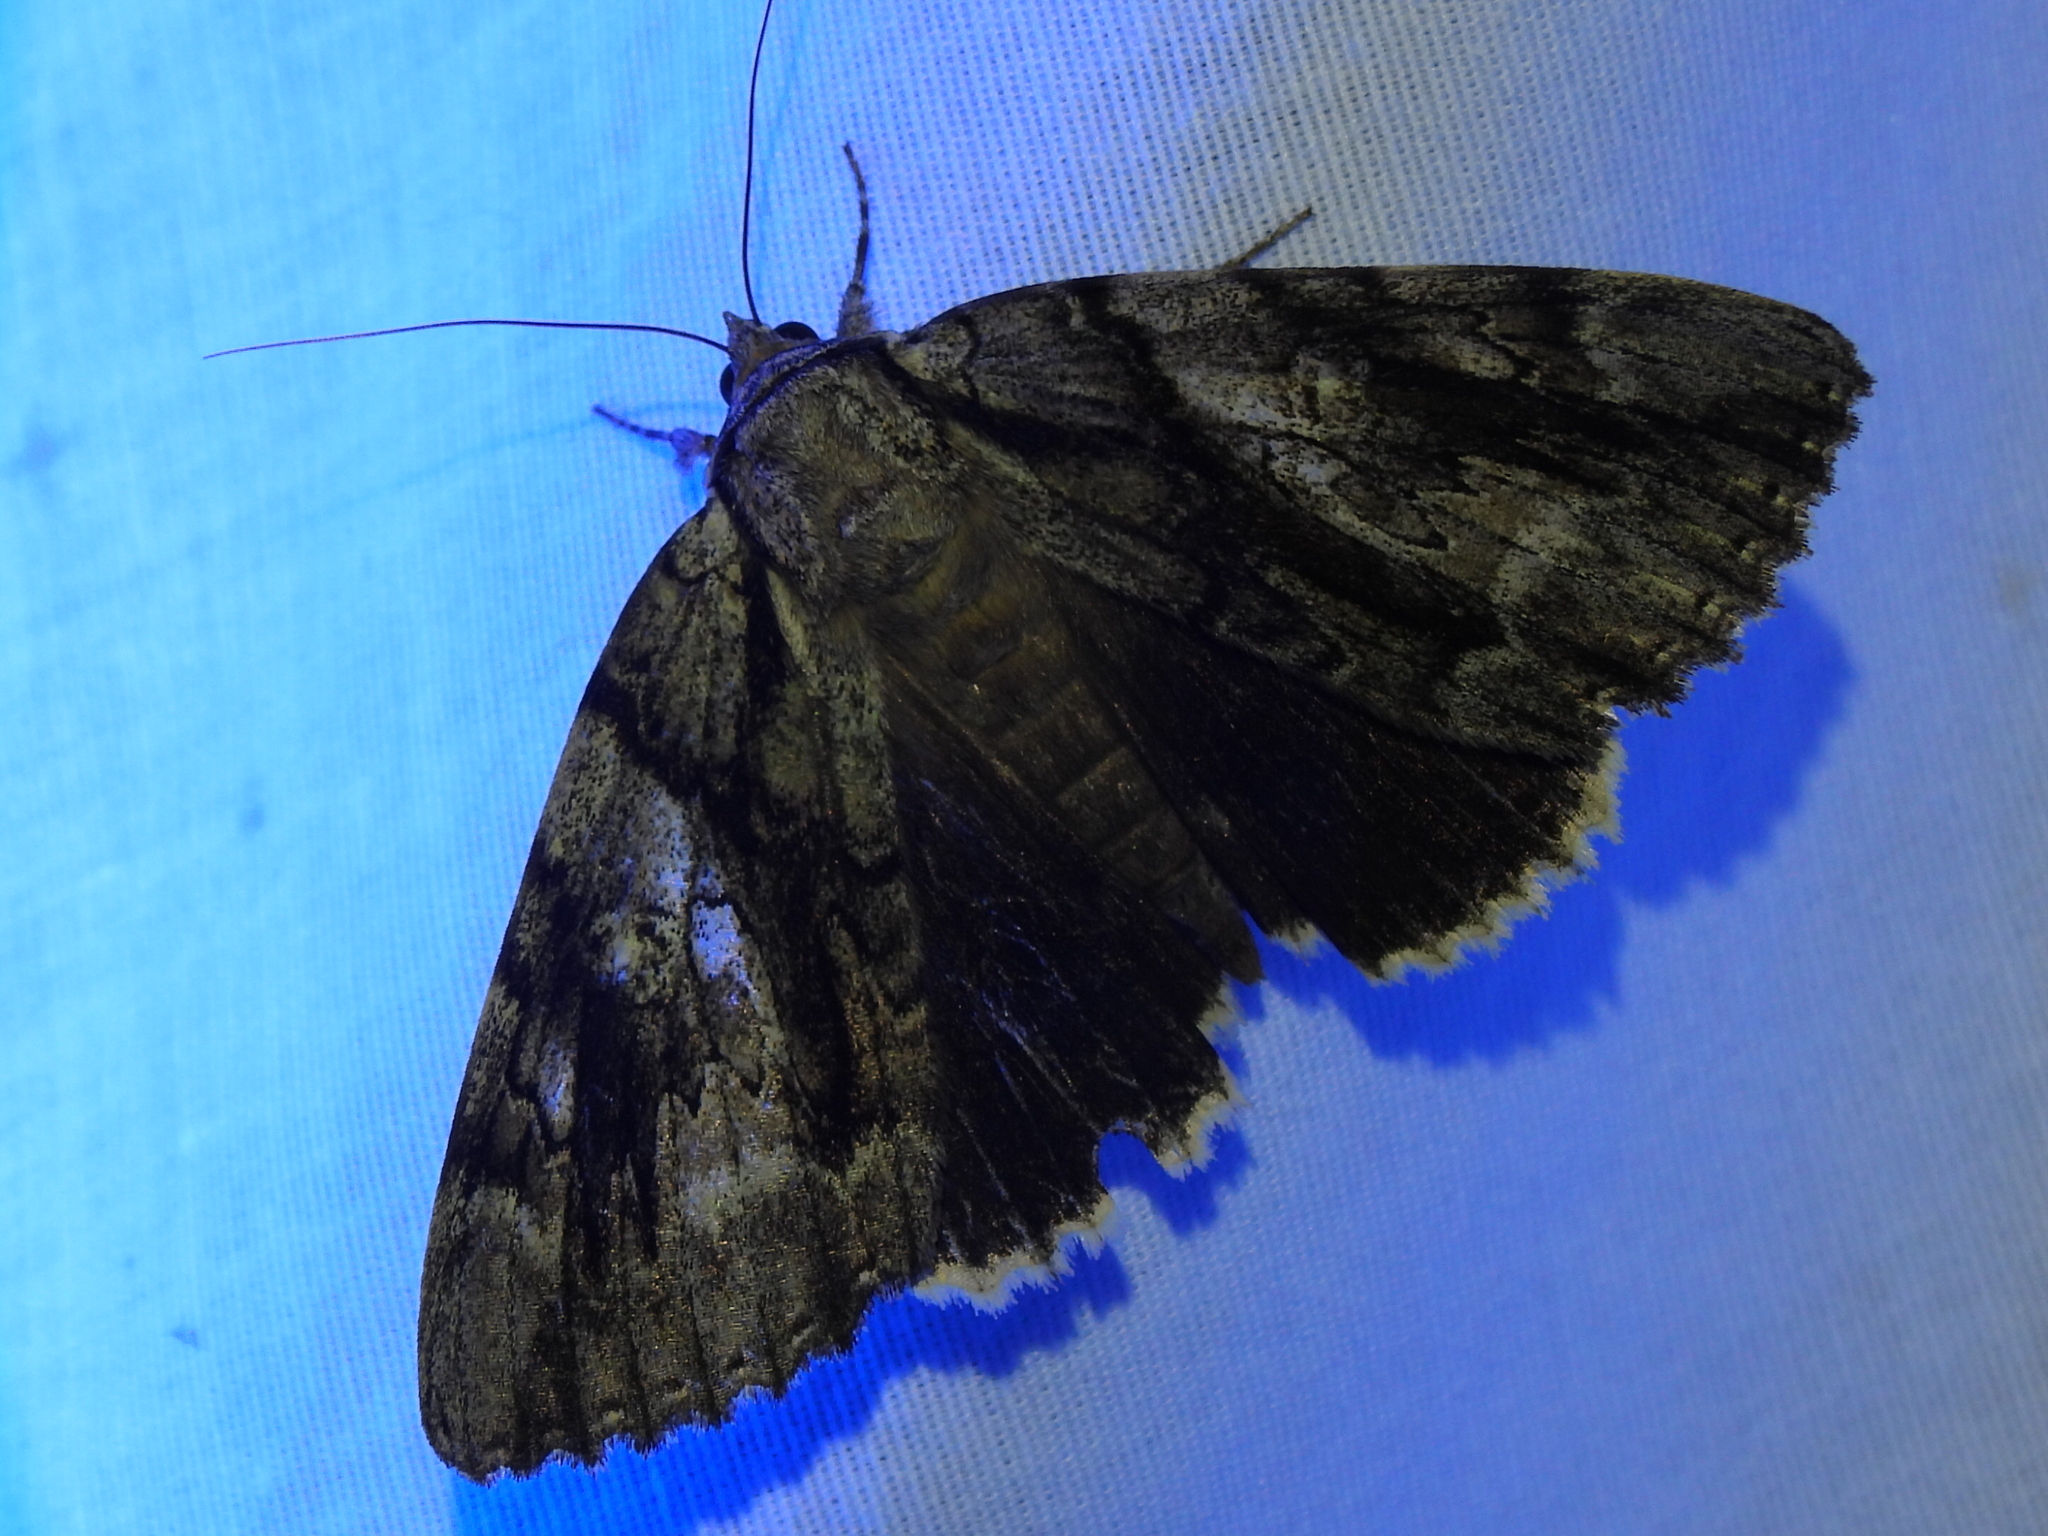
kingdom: Animalia
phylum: Arthropoda
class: Insecta
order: Lepidoptera
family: Erebidae
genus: Catocala
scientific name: Catocala vidua
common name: The widow
